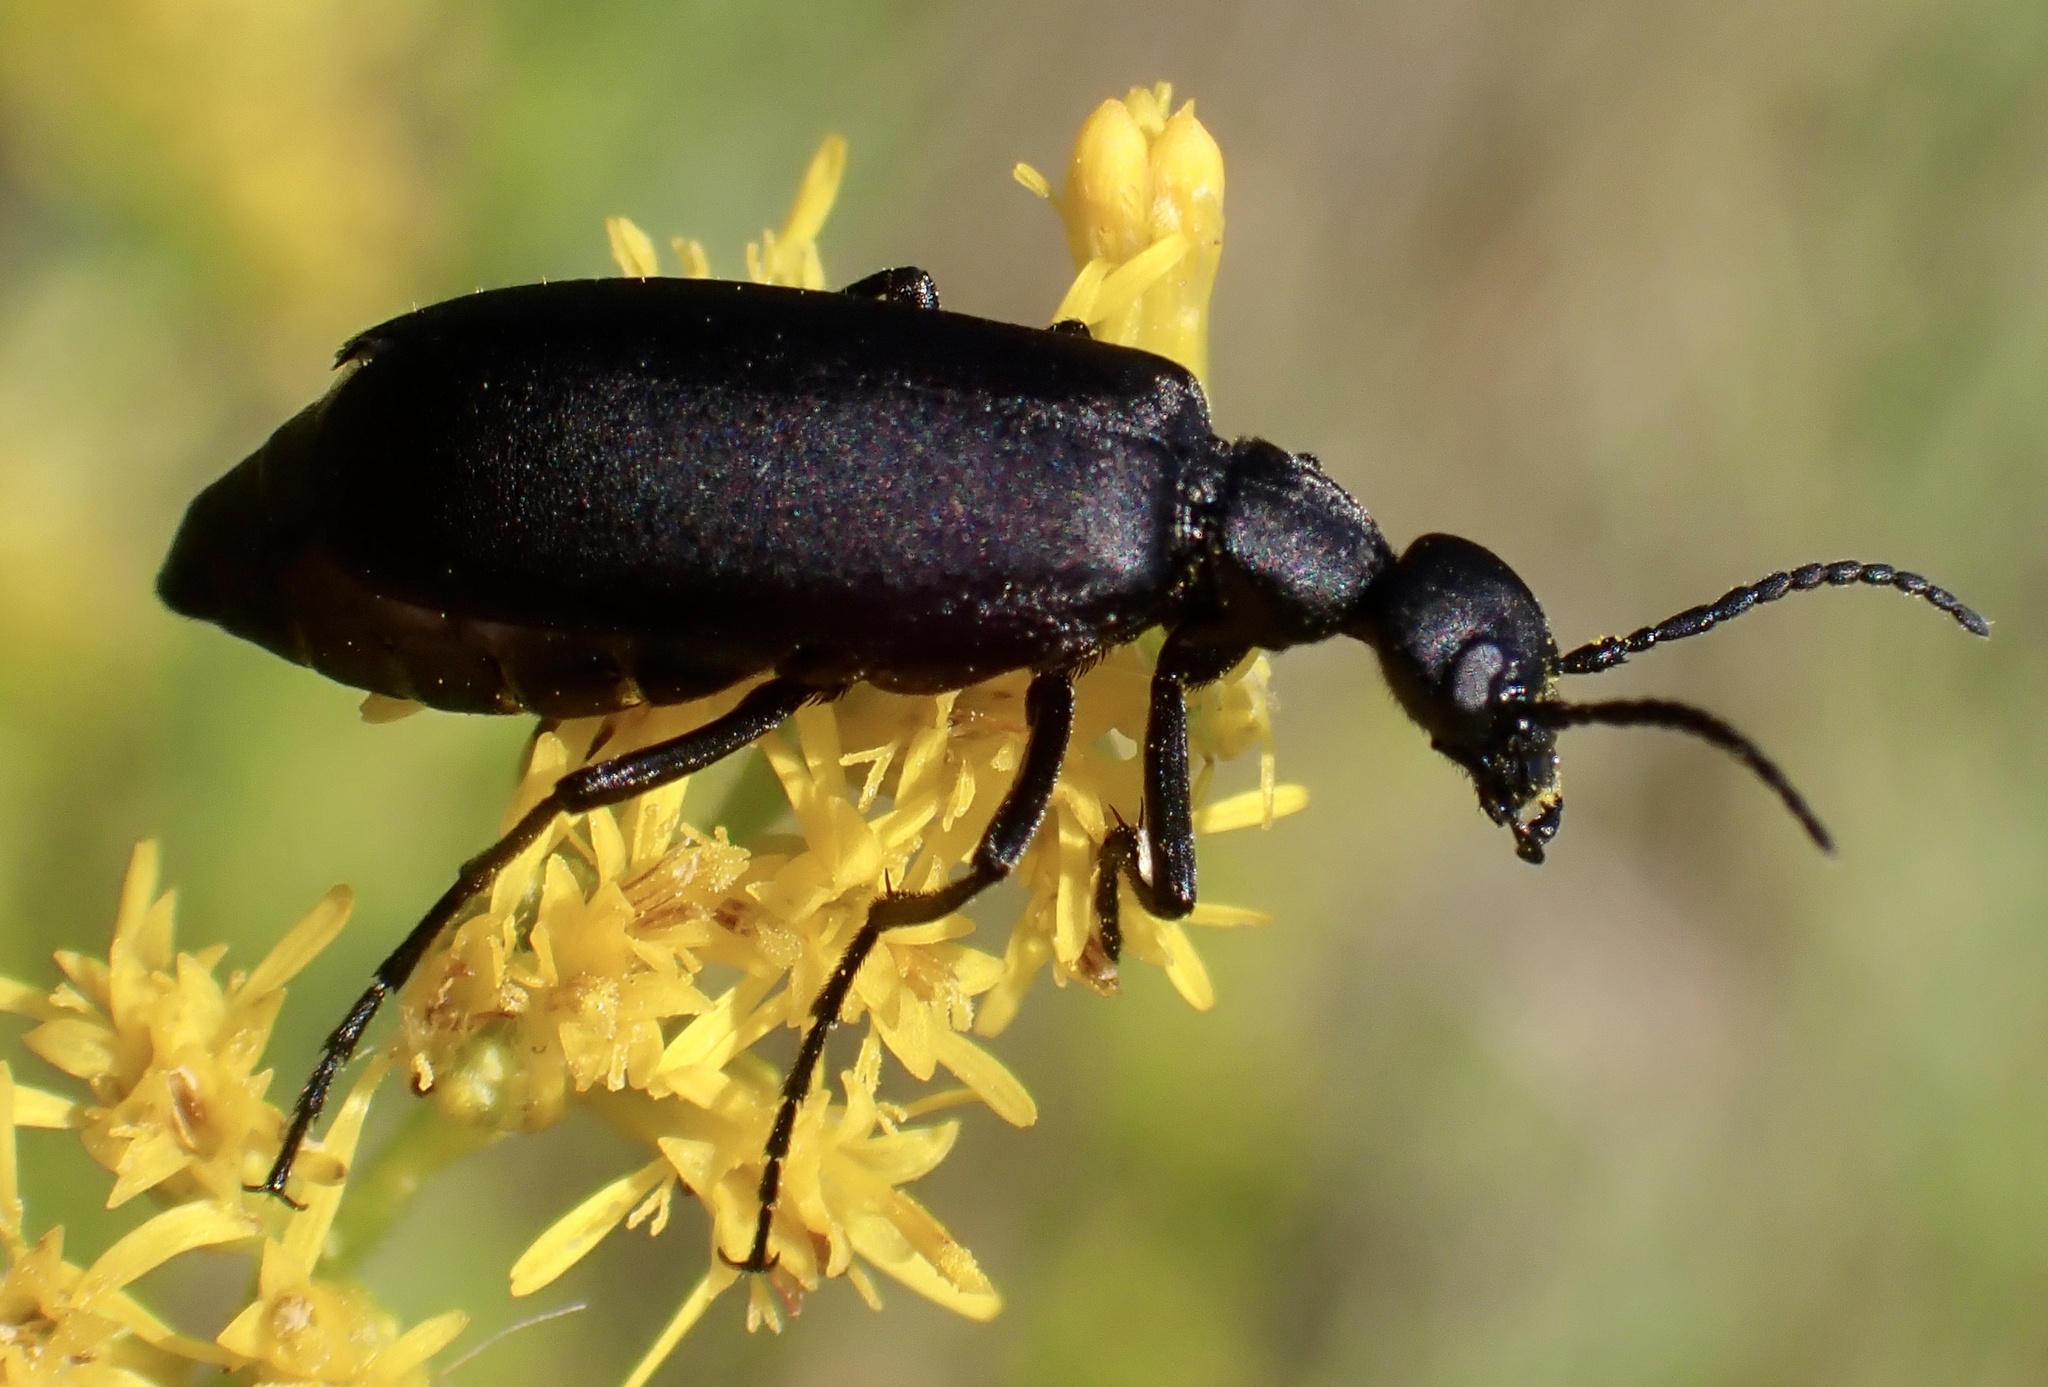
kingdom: Animalia
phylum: Arthropoda
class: Insecta
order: Coleoptera
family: Meloidae
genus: Epicauta
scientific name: Epicauta pensylvanica
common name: Black blister beetle
